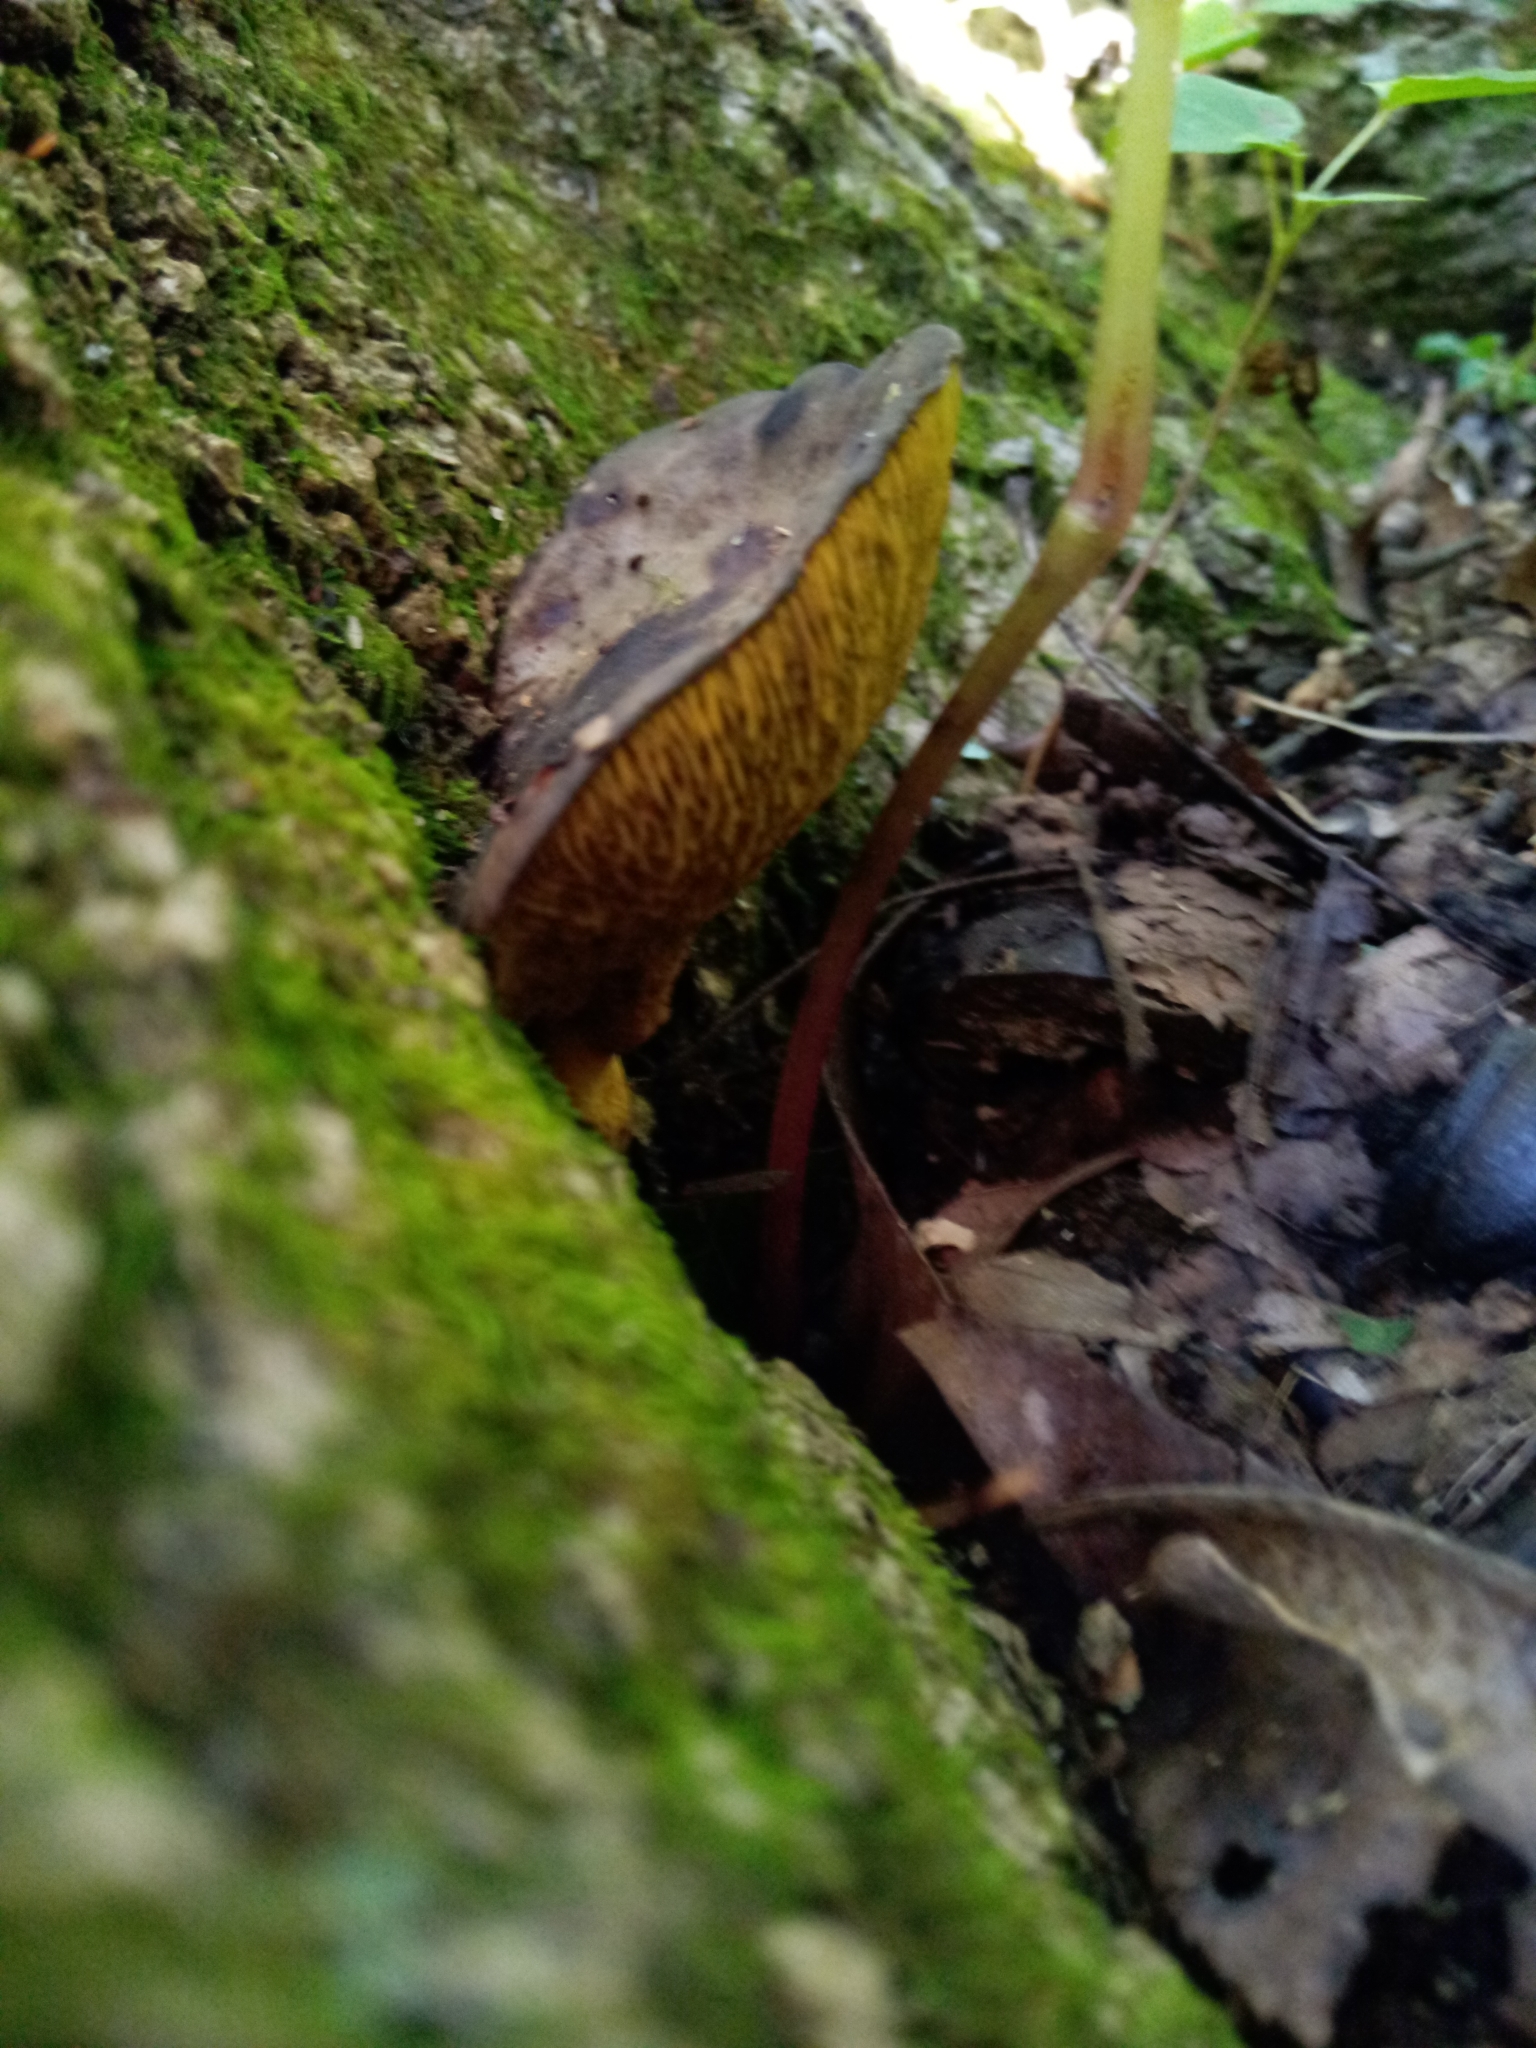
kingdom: Fungi
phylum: Basidiomycota
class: Agaricomycetes
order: Boletales
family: Boletinellaceae
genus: Boletinellus
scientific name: Boletinellus merulioides
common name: Ash tree bolete
